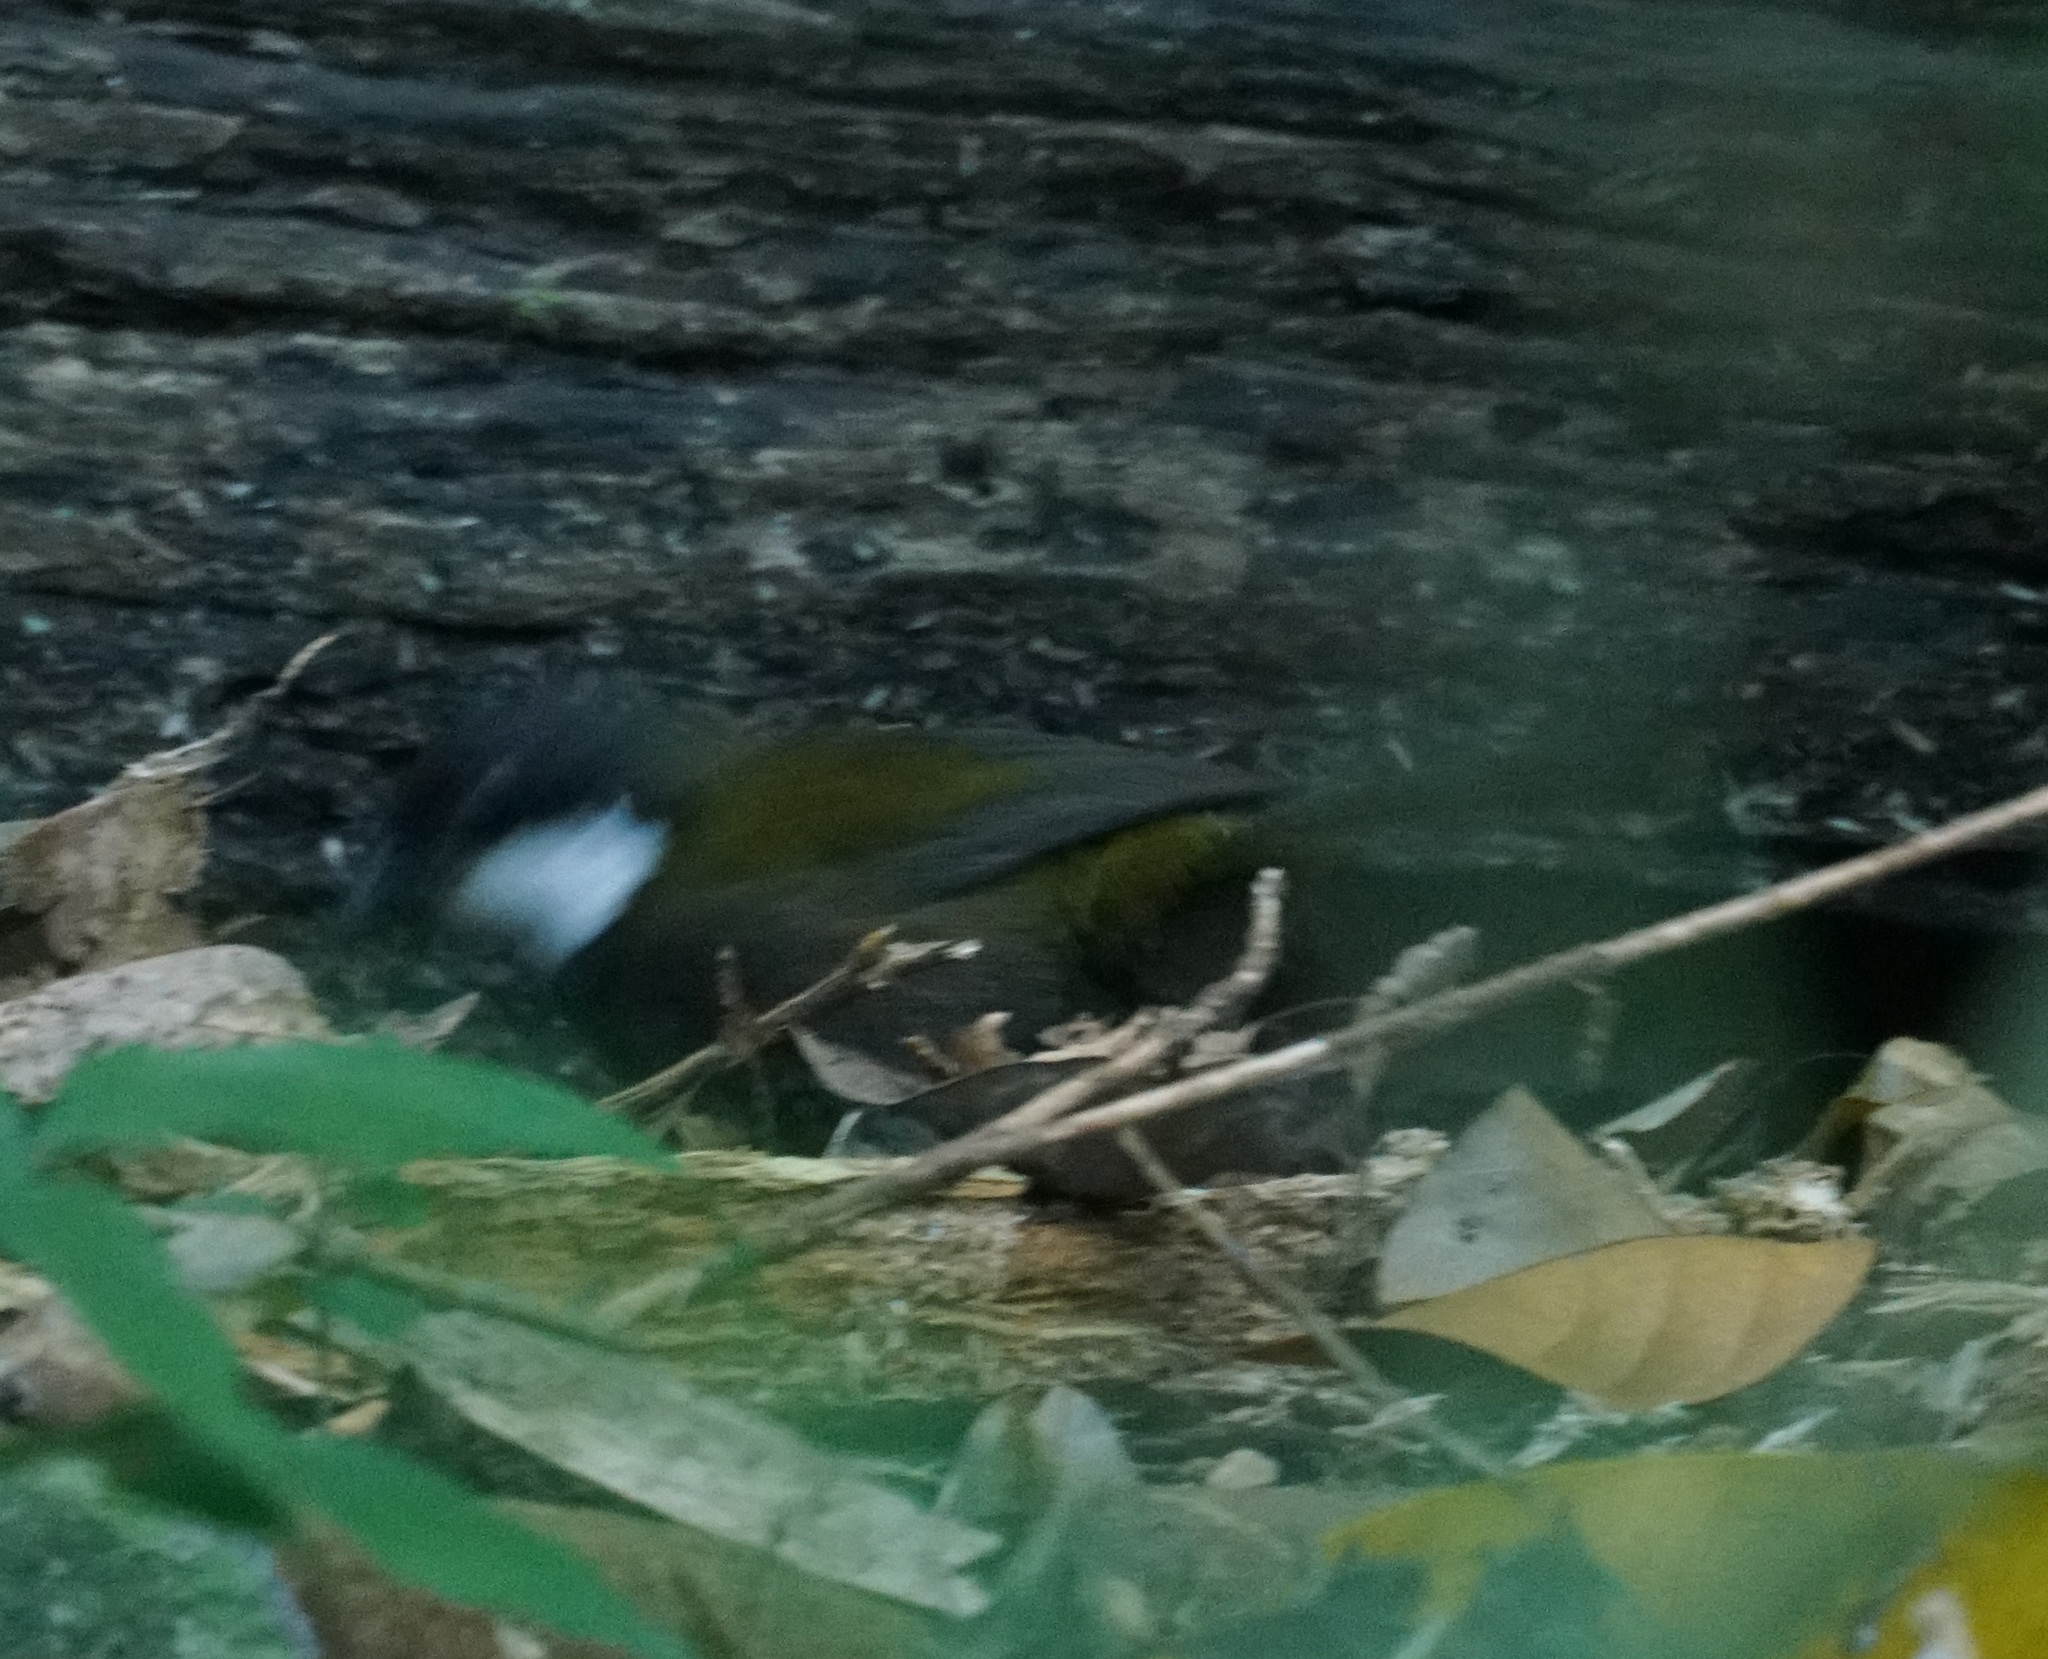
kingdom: Animalia
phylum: Chordata
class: Aves
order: Passeriformes
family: Psophodidae
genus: Psophodes
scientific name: Psophodes olivaceus
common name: Eastern whipbird
